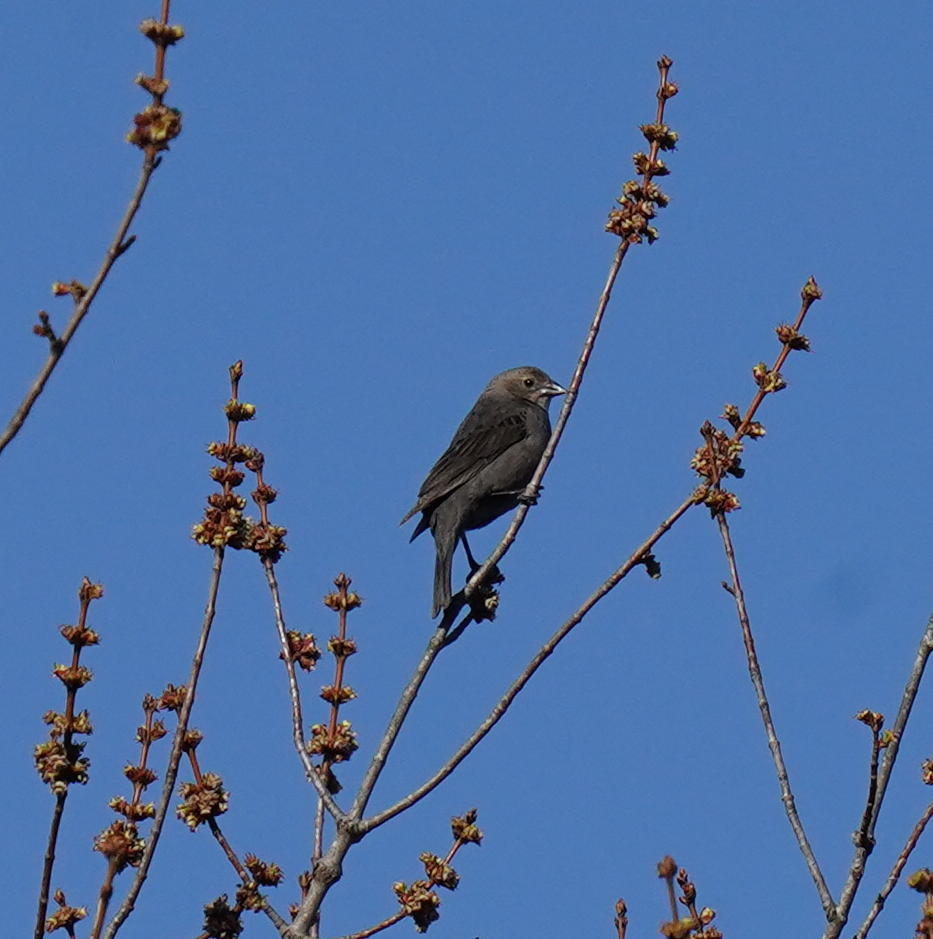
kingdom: Animalia
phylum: Chordata
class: Aves
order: Passeriformes
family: Icteridae
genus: Molothrus
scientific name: Molothrus ater
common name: Brown-headed cowbird
